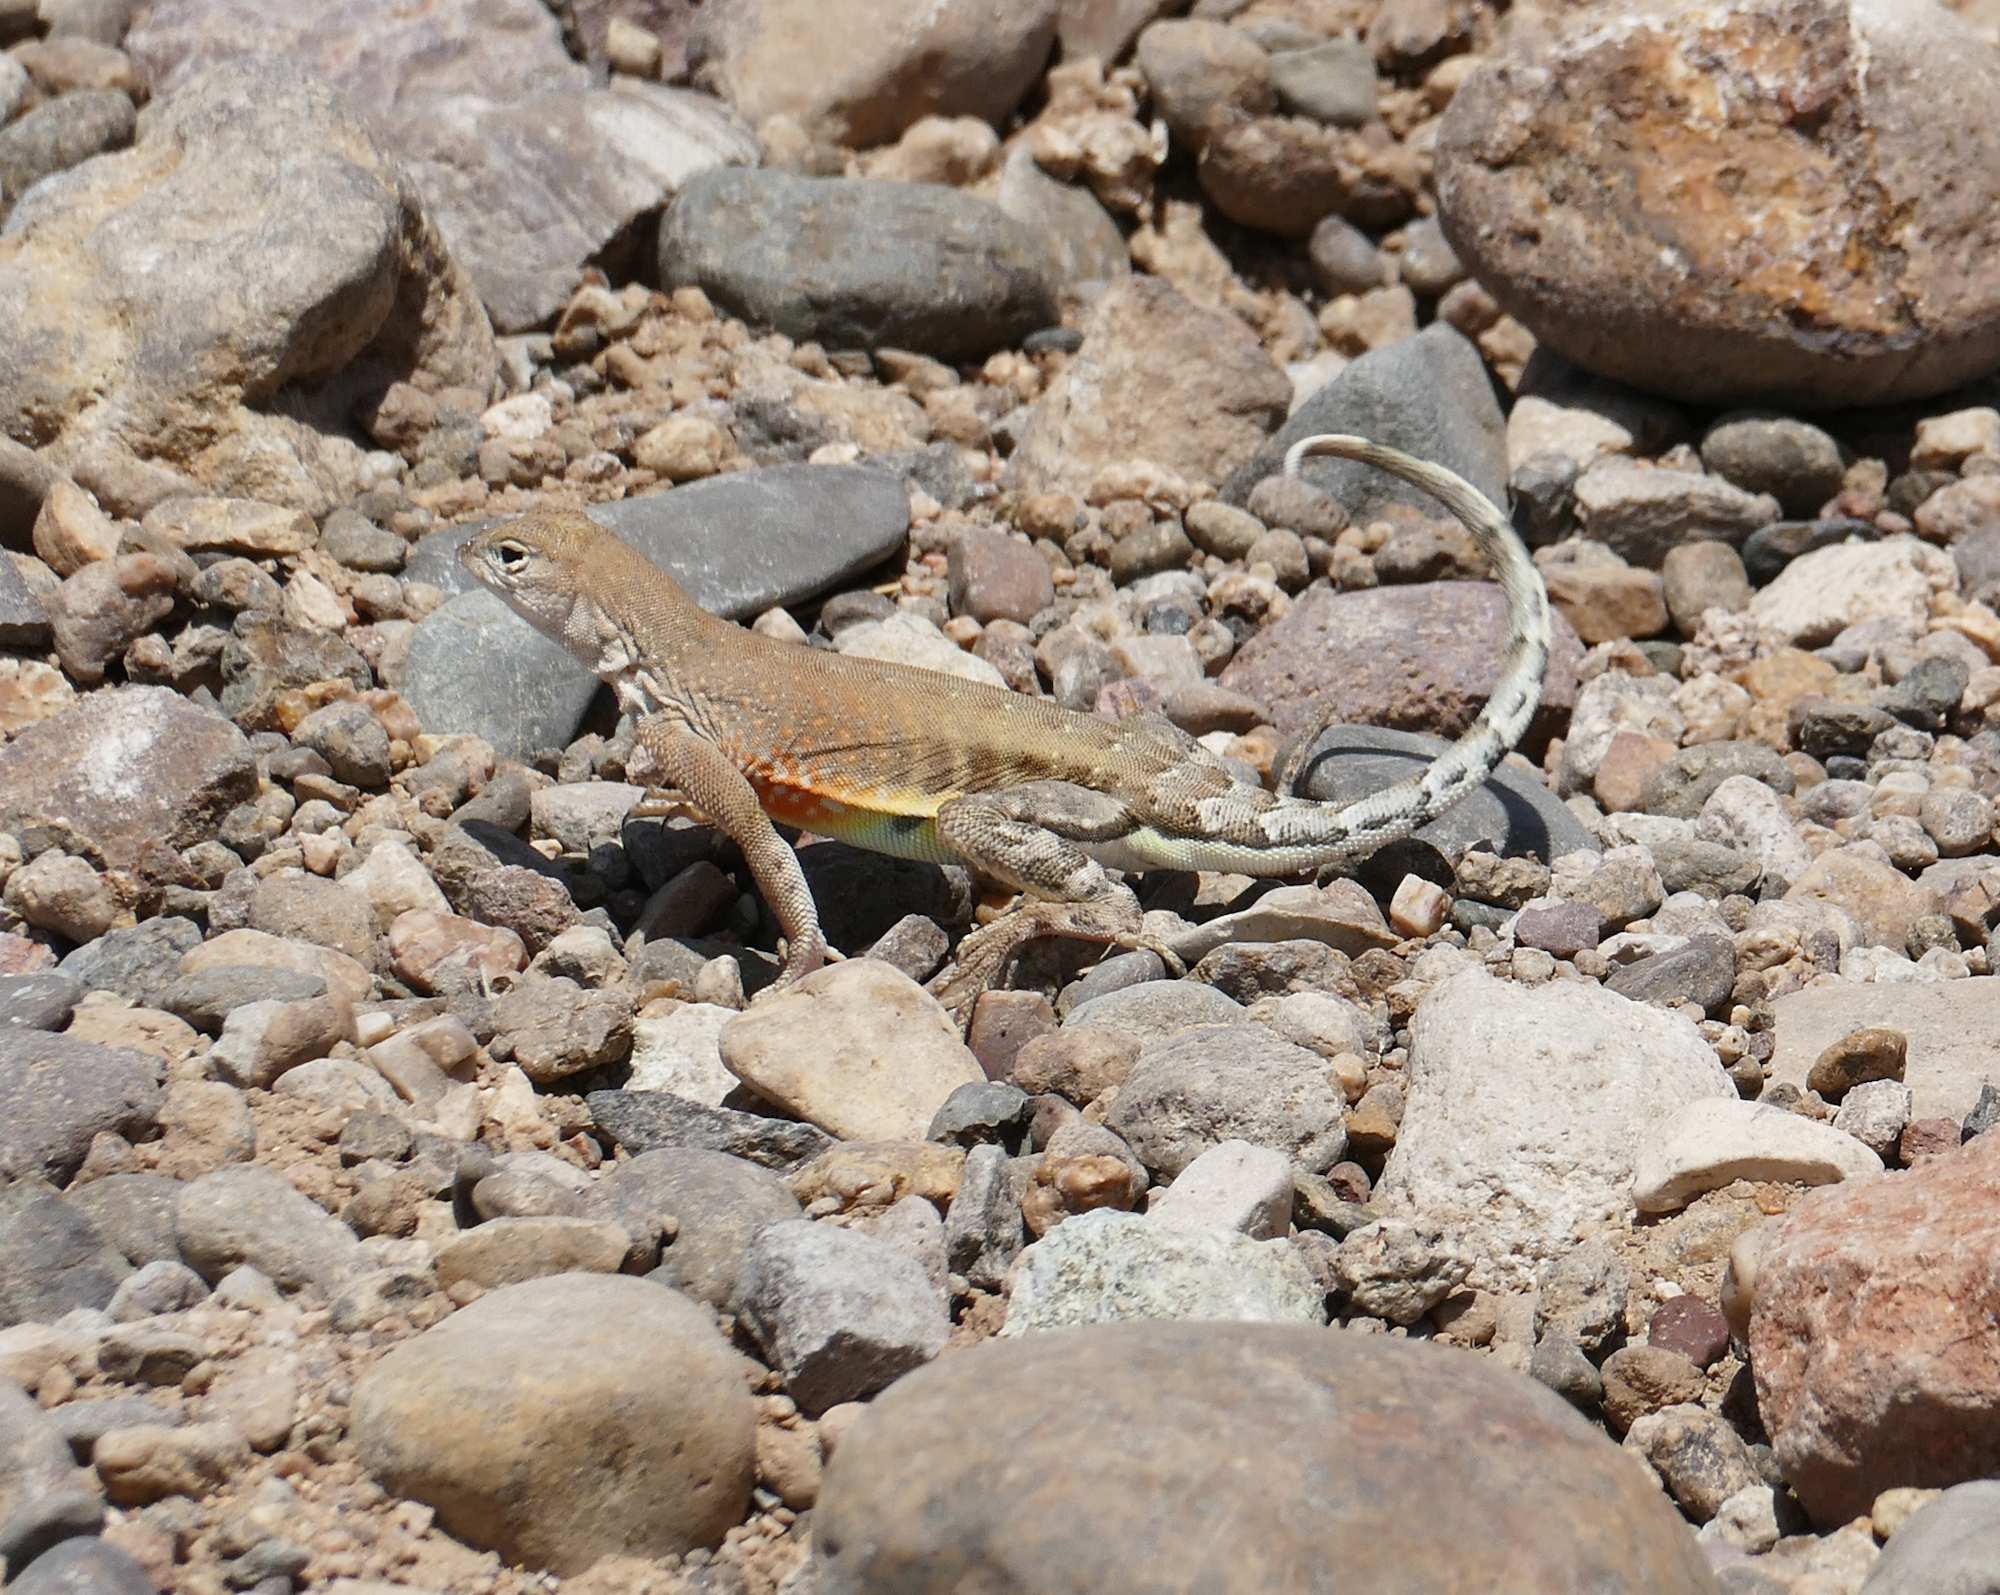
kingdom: Animalia
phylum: Chordata
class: Squamata
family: Phrynosomatidae
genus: Cophosaurus
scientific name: Cophosaurus texanus
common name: Greater earless lizard
